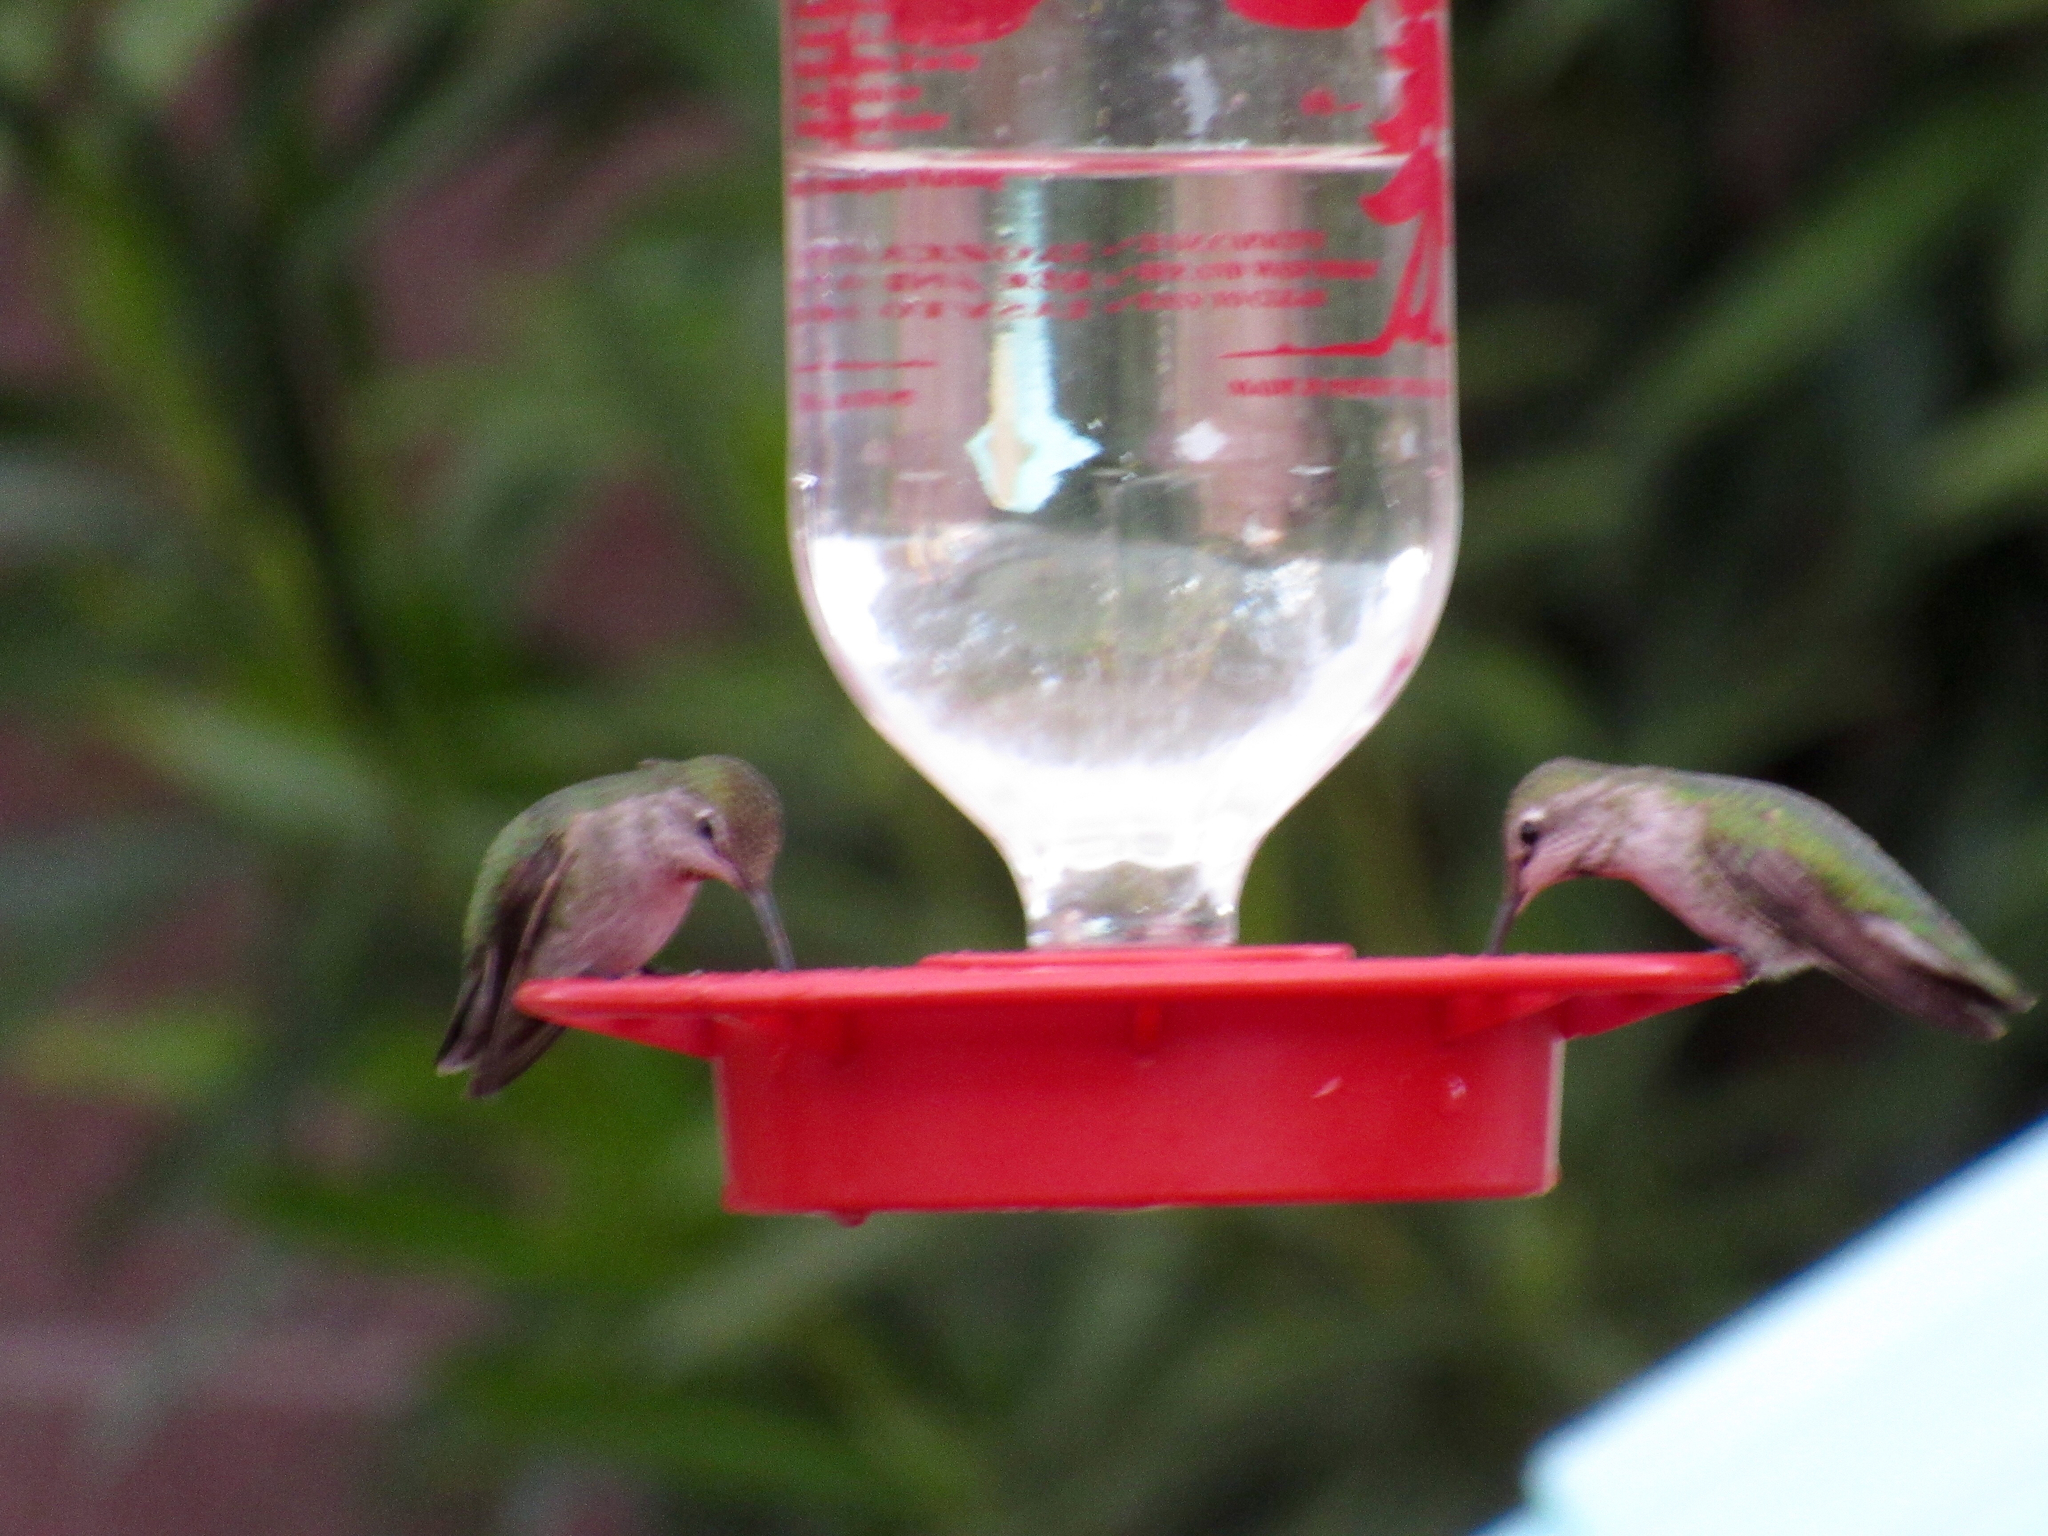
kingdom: Animalia
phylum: Chordata
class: Aves
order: Apodiformes
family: Trochilidae
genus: Calypte
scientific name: Calypte anna
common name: Anna's hummingbird
